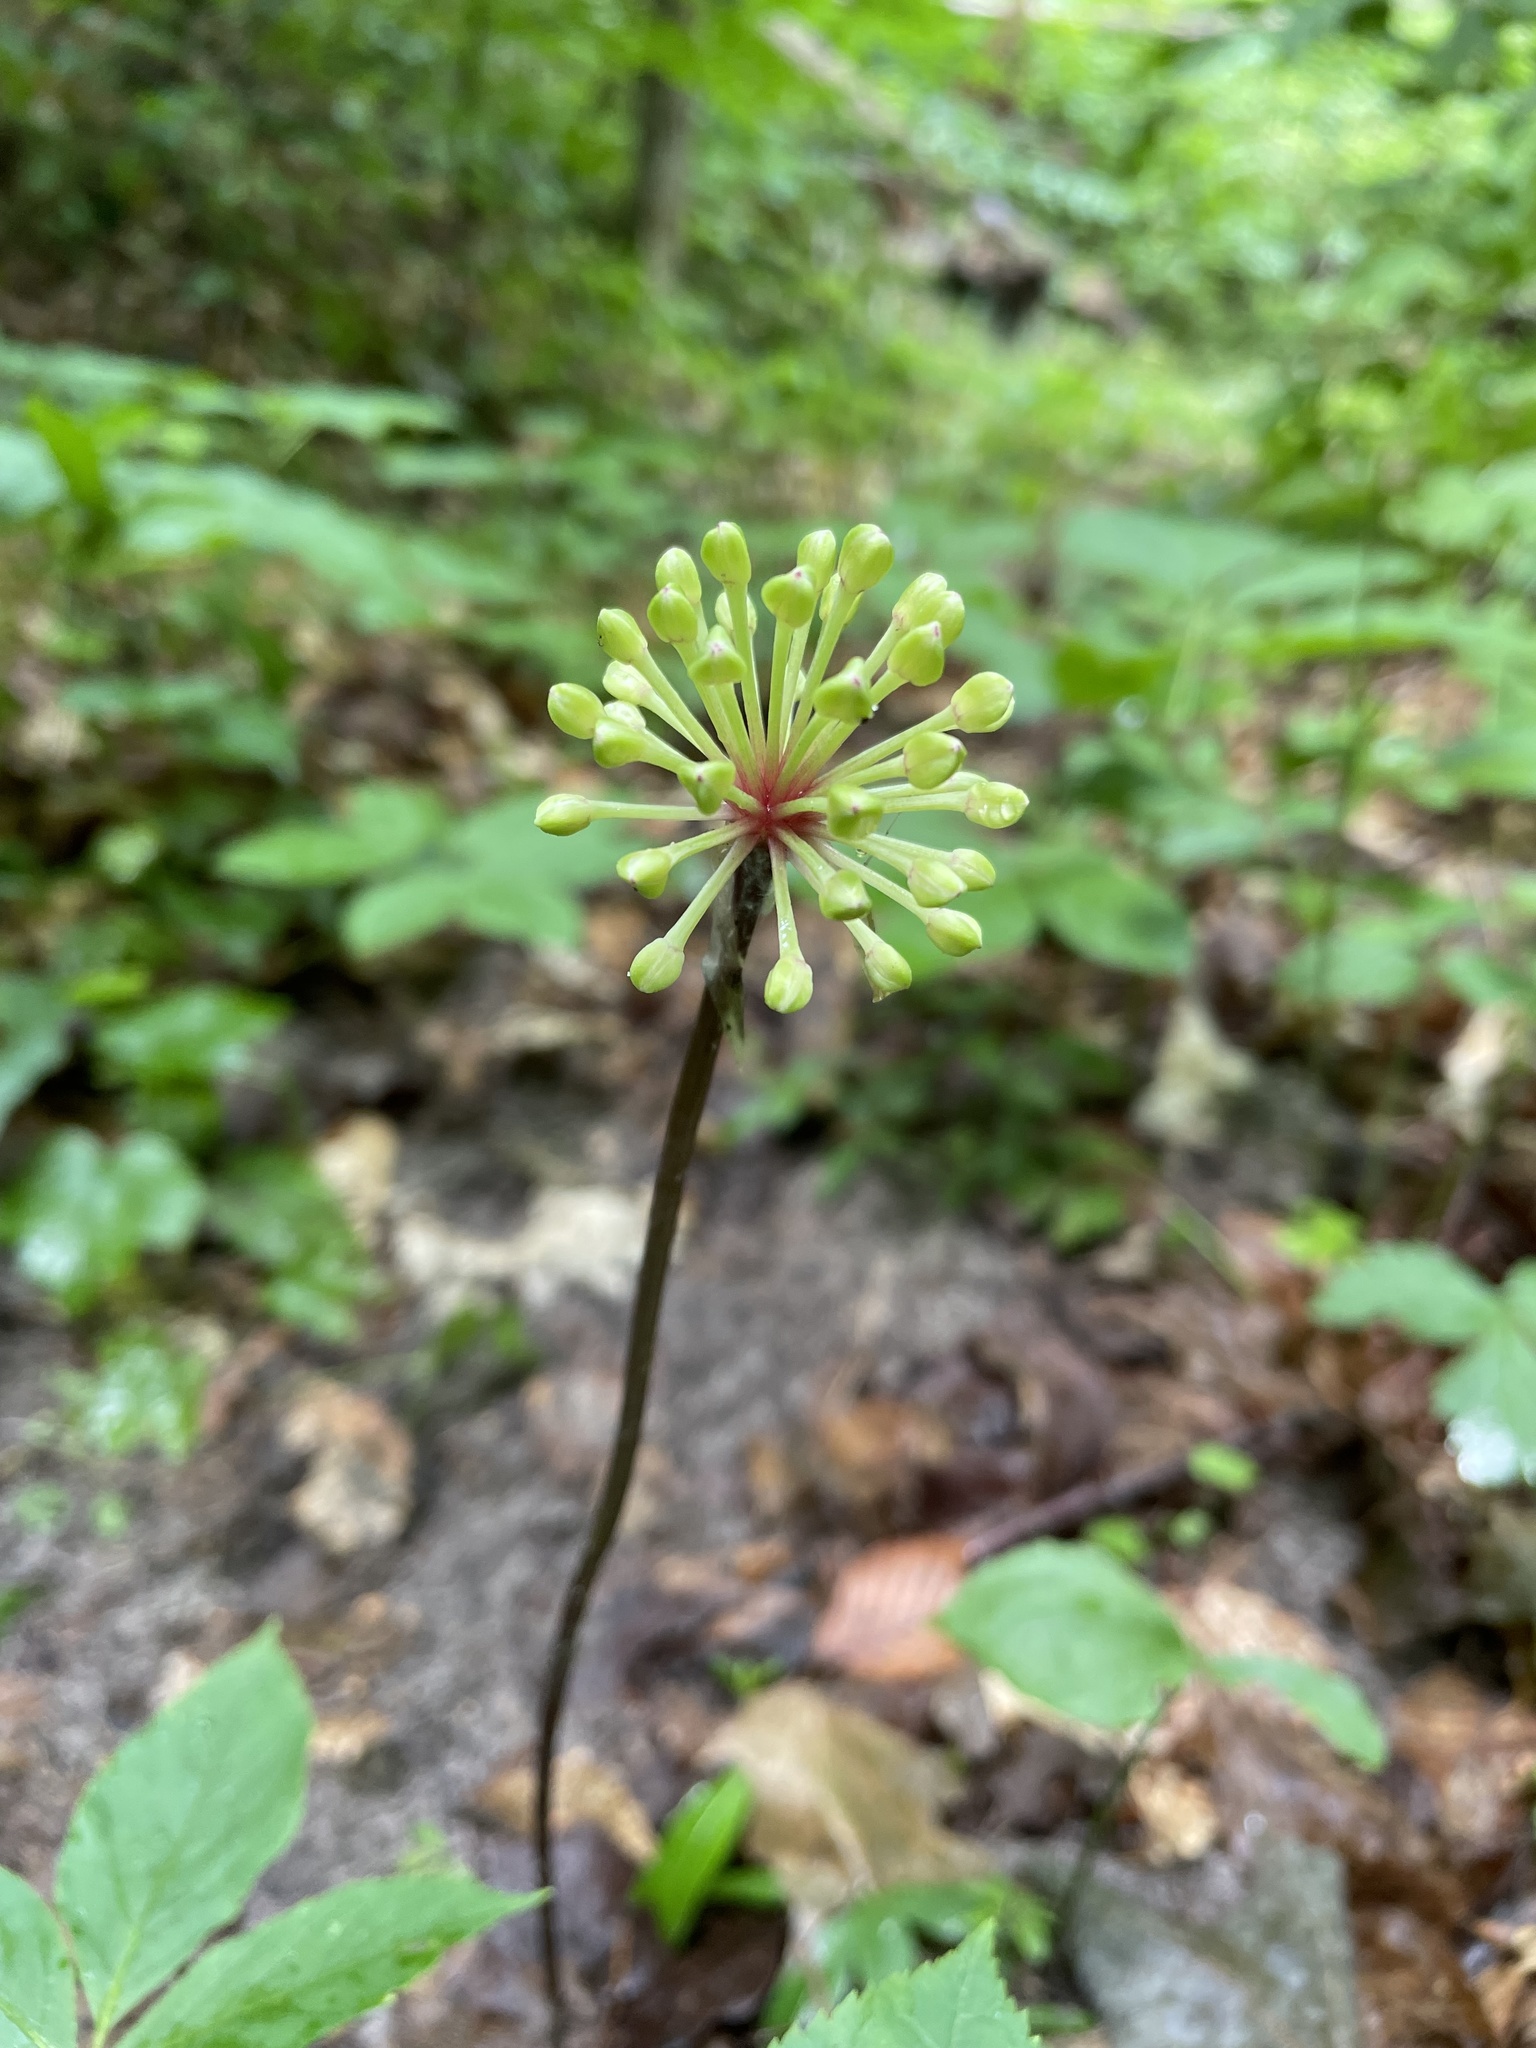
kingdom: Plantae
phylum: Tracheophyta
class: Liliopsida
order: Asparagales
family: Amaryllidaceae
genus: Allium
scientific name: Allium tricoccum
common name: Ramp
